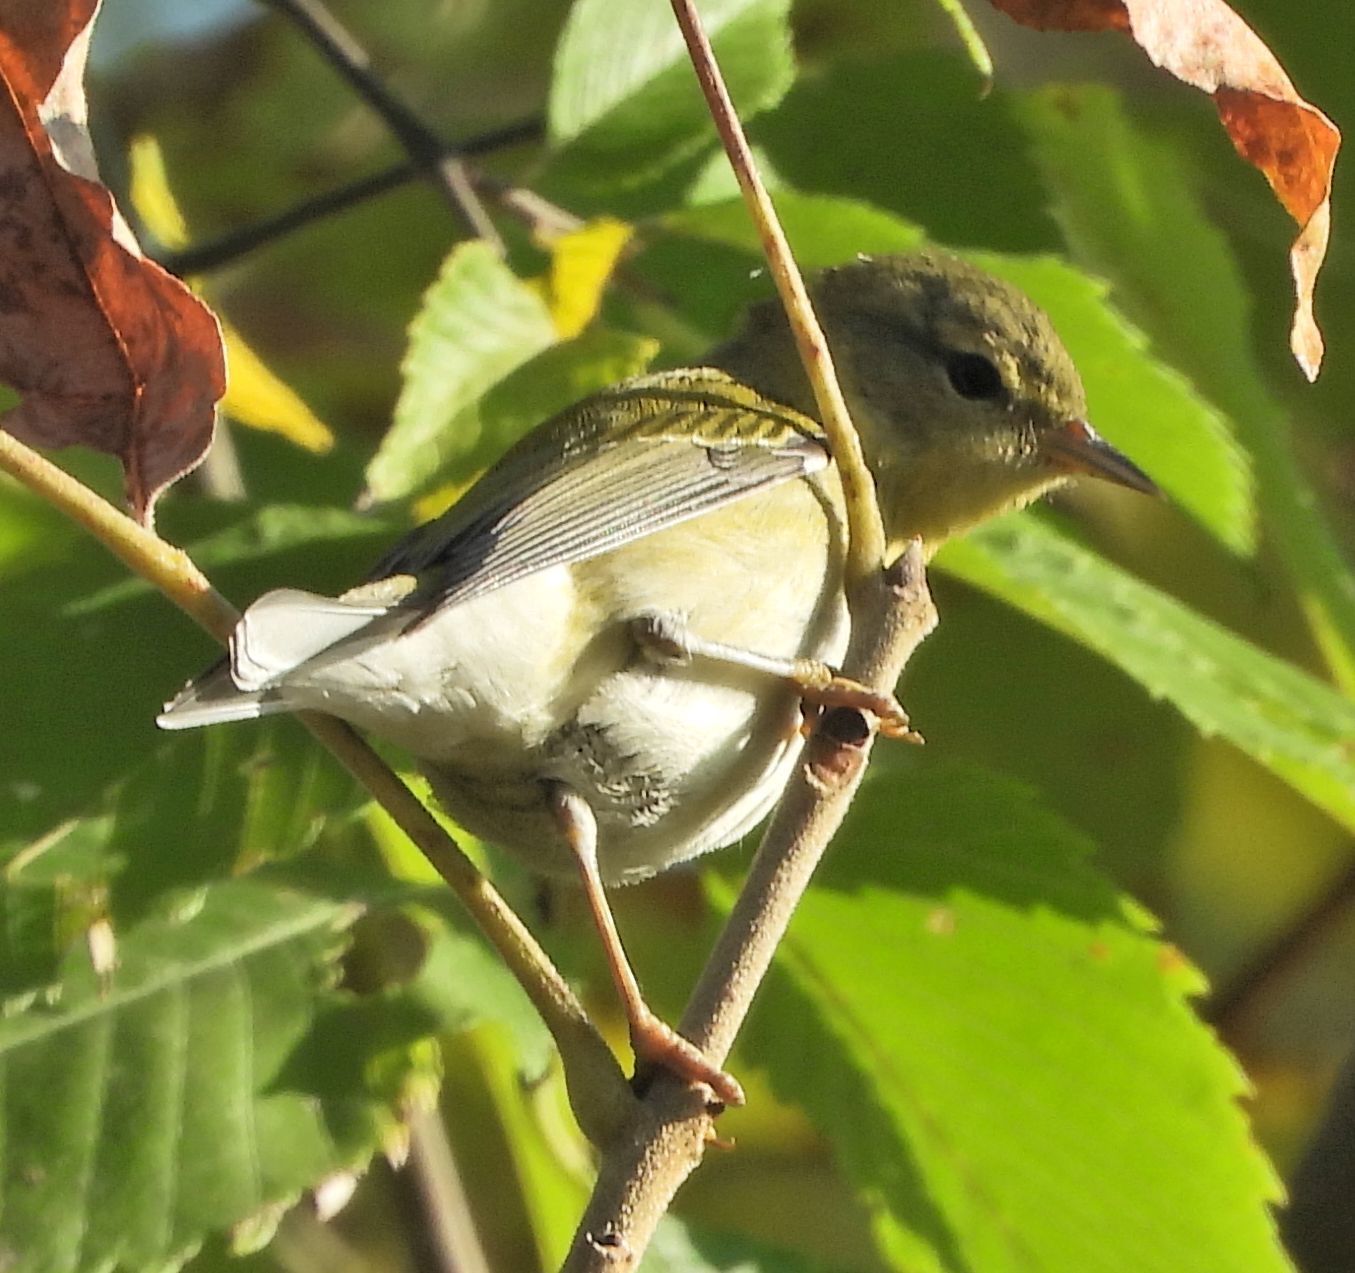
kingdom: Animalia
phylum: Chordata
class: Aves
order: Passeriformes
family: Parulidae
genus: Setophaga
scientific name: Setophaga striata
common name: Blackpoll warbler
